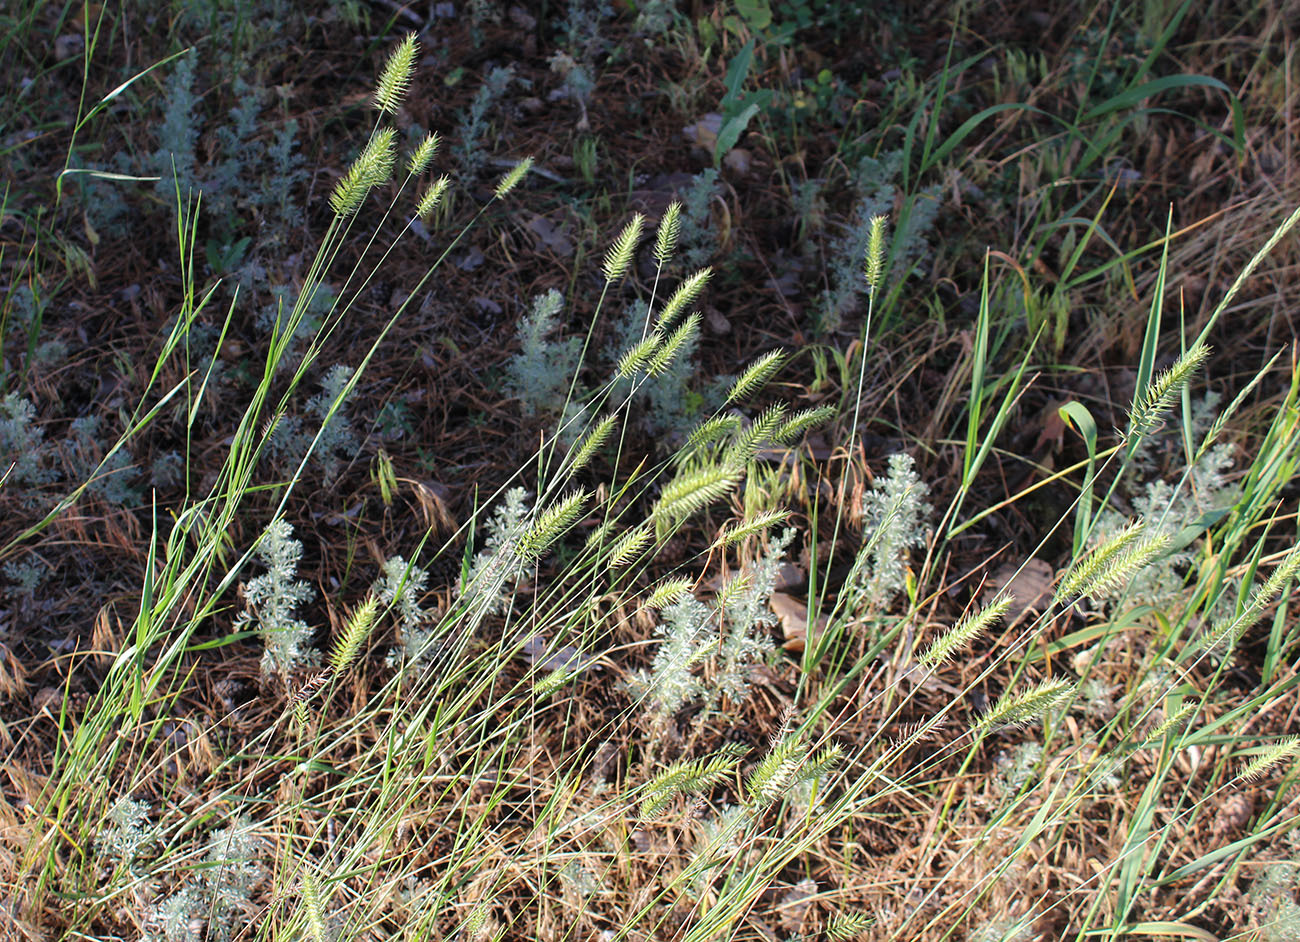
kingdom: Plantae
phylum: Tracheophyta
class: Liliopsida
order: Poales
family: Poaceae
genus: Agropyron
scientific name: Agropyron cristatum
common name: Crested wheatgrass
